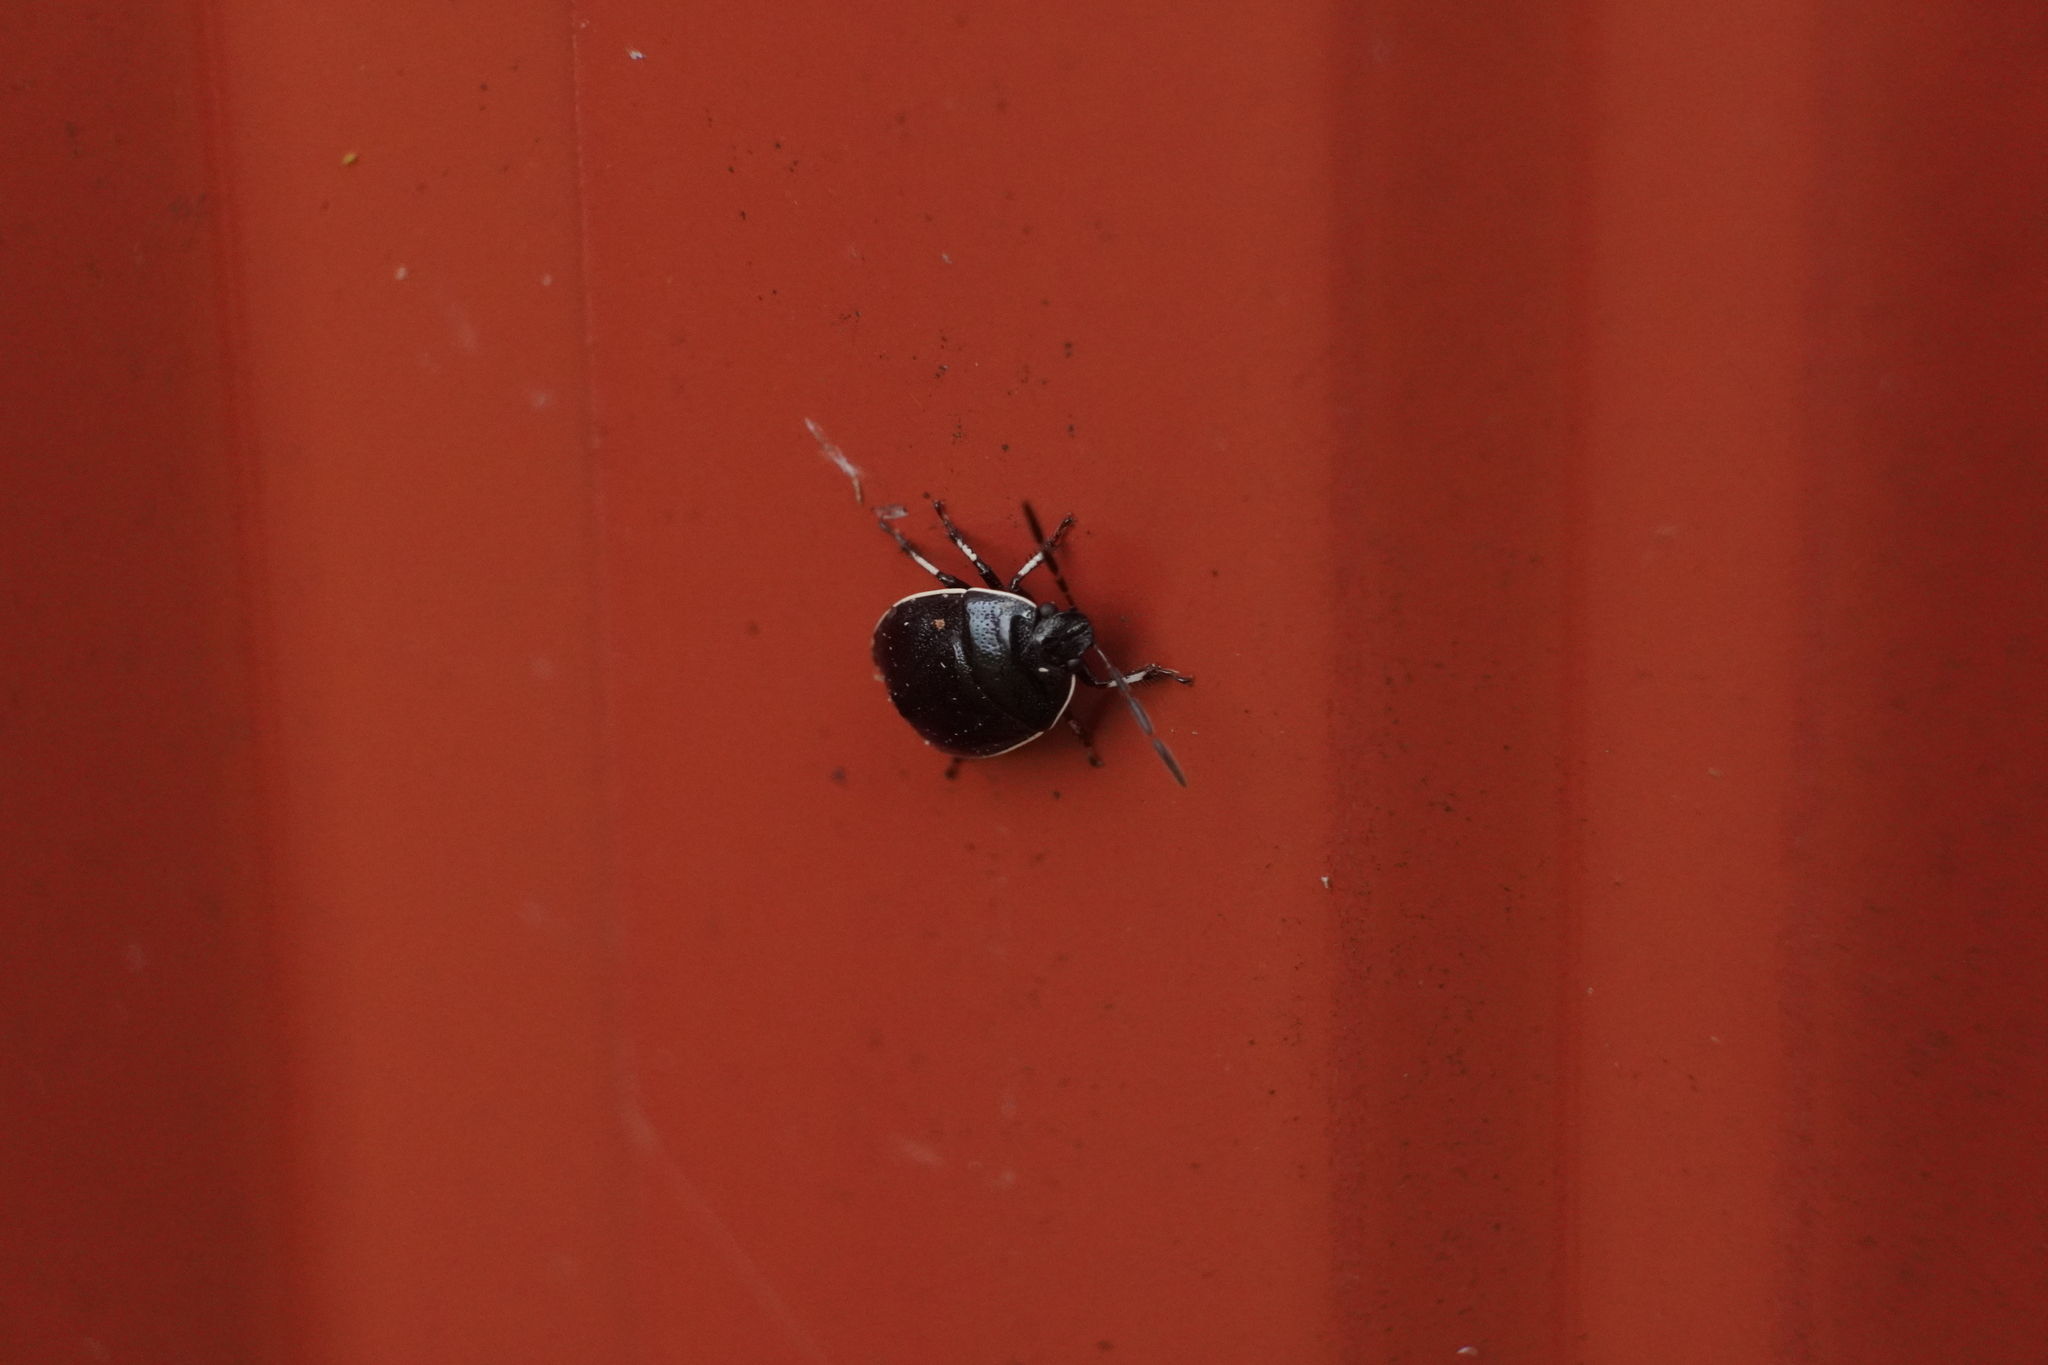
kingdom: Animalia
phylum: Arthropoda
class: Insecta
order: Hemiptera
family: Cydnidae
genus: Sehirus
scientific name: Sehirus cinctus
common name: White-margined burrower bug
